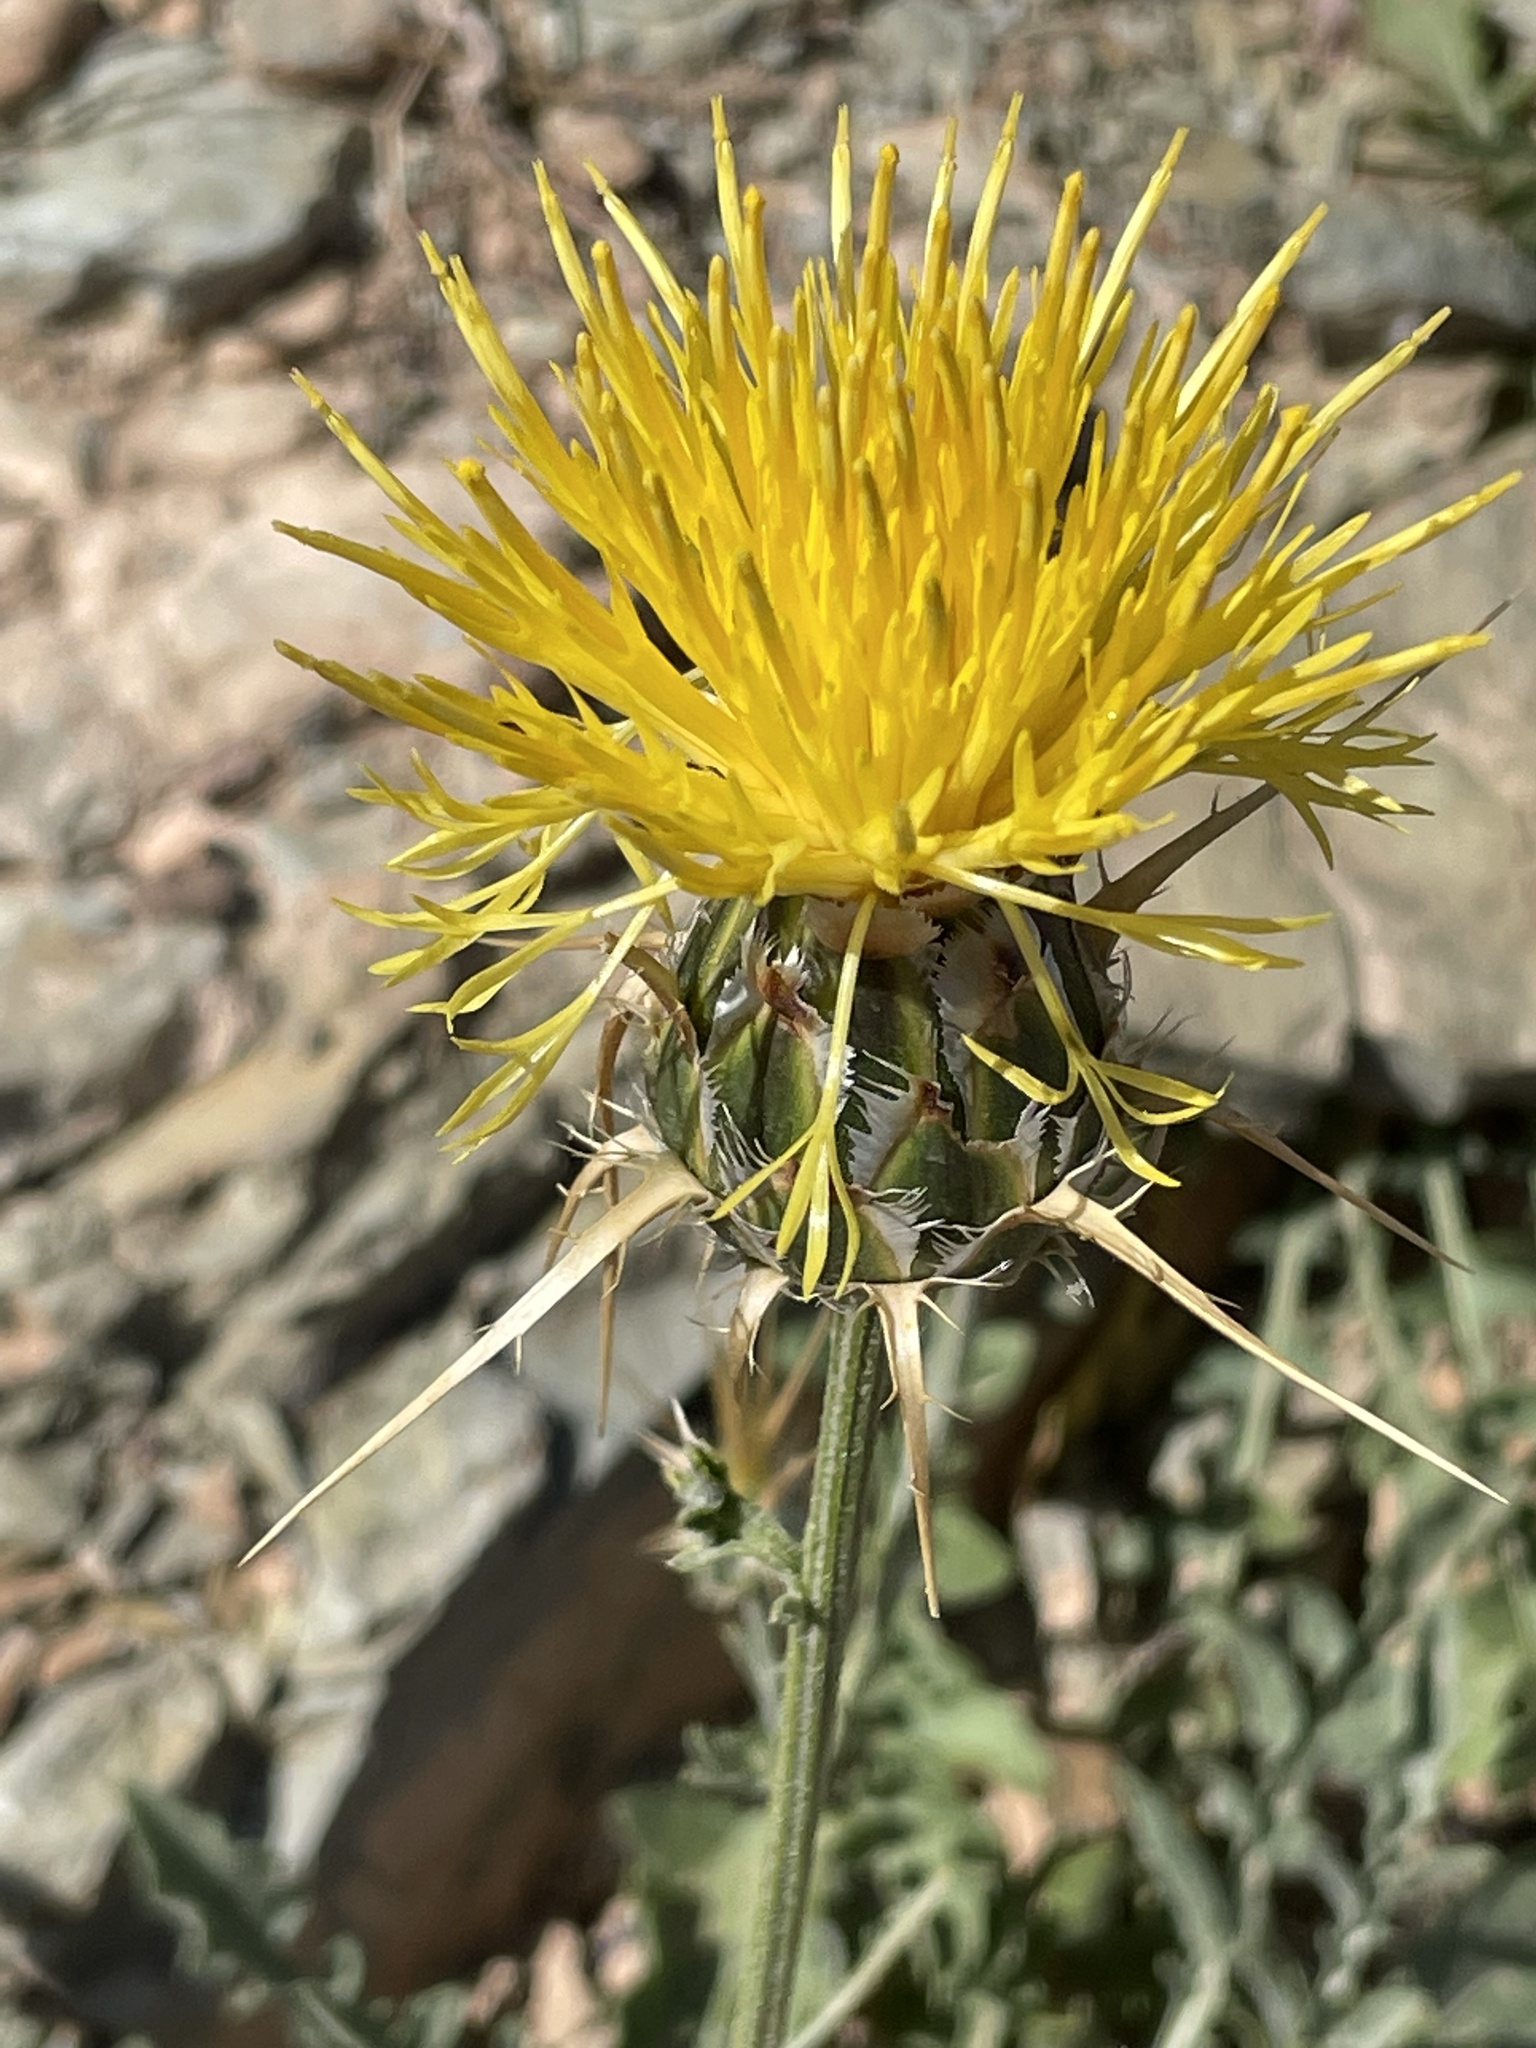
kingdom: Plantae
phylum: Tracheophyta
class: Magnoliopsida
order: Asterales
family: Asteraceae
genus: Centaurea
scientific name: Centaurea pubescens
